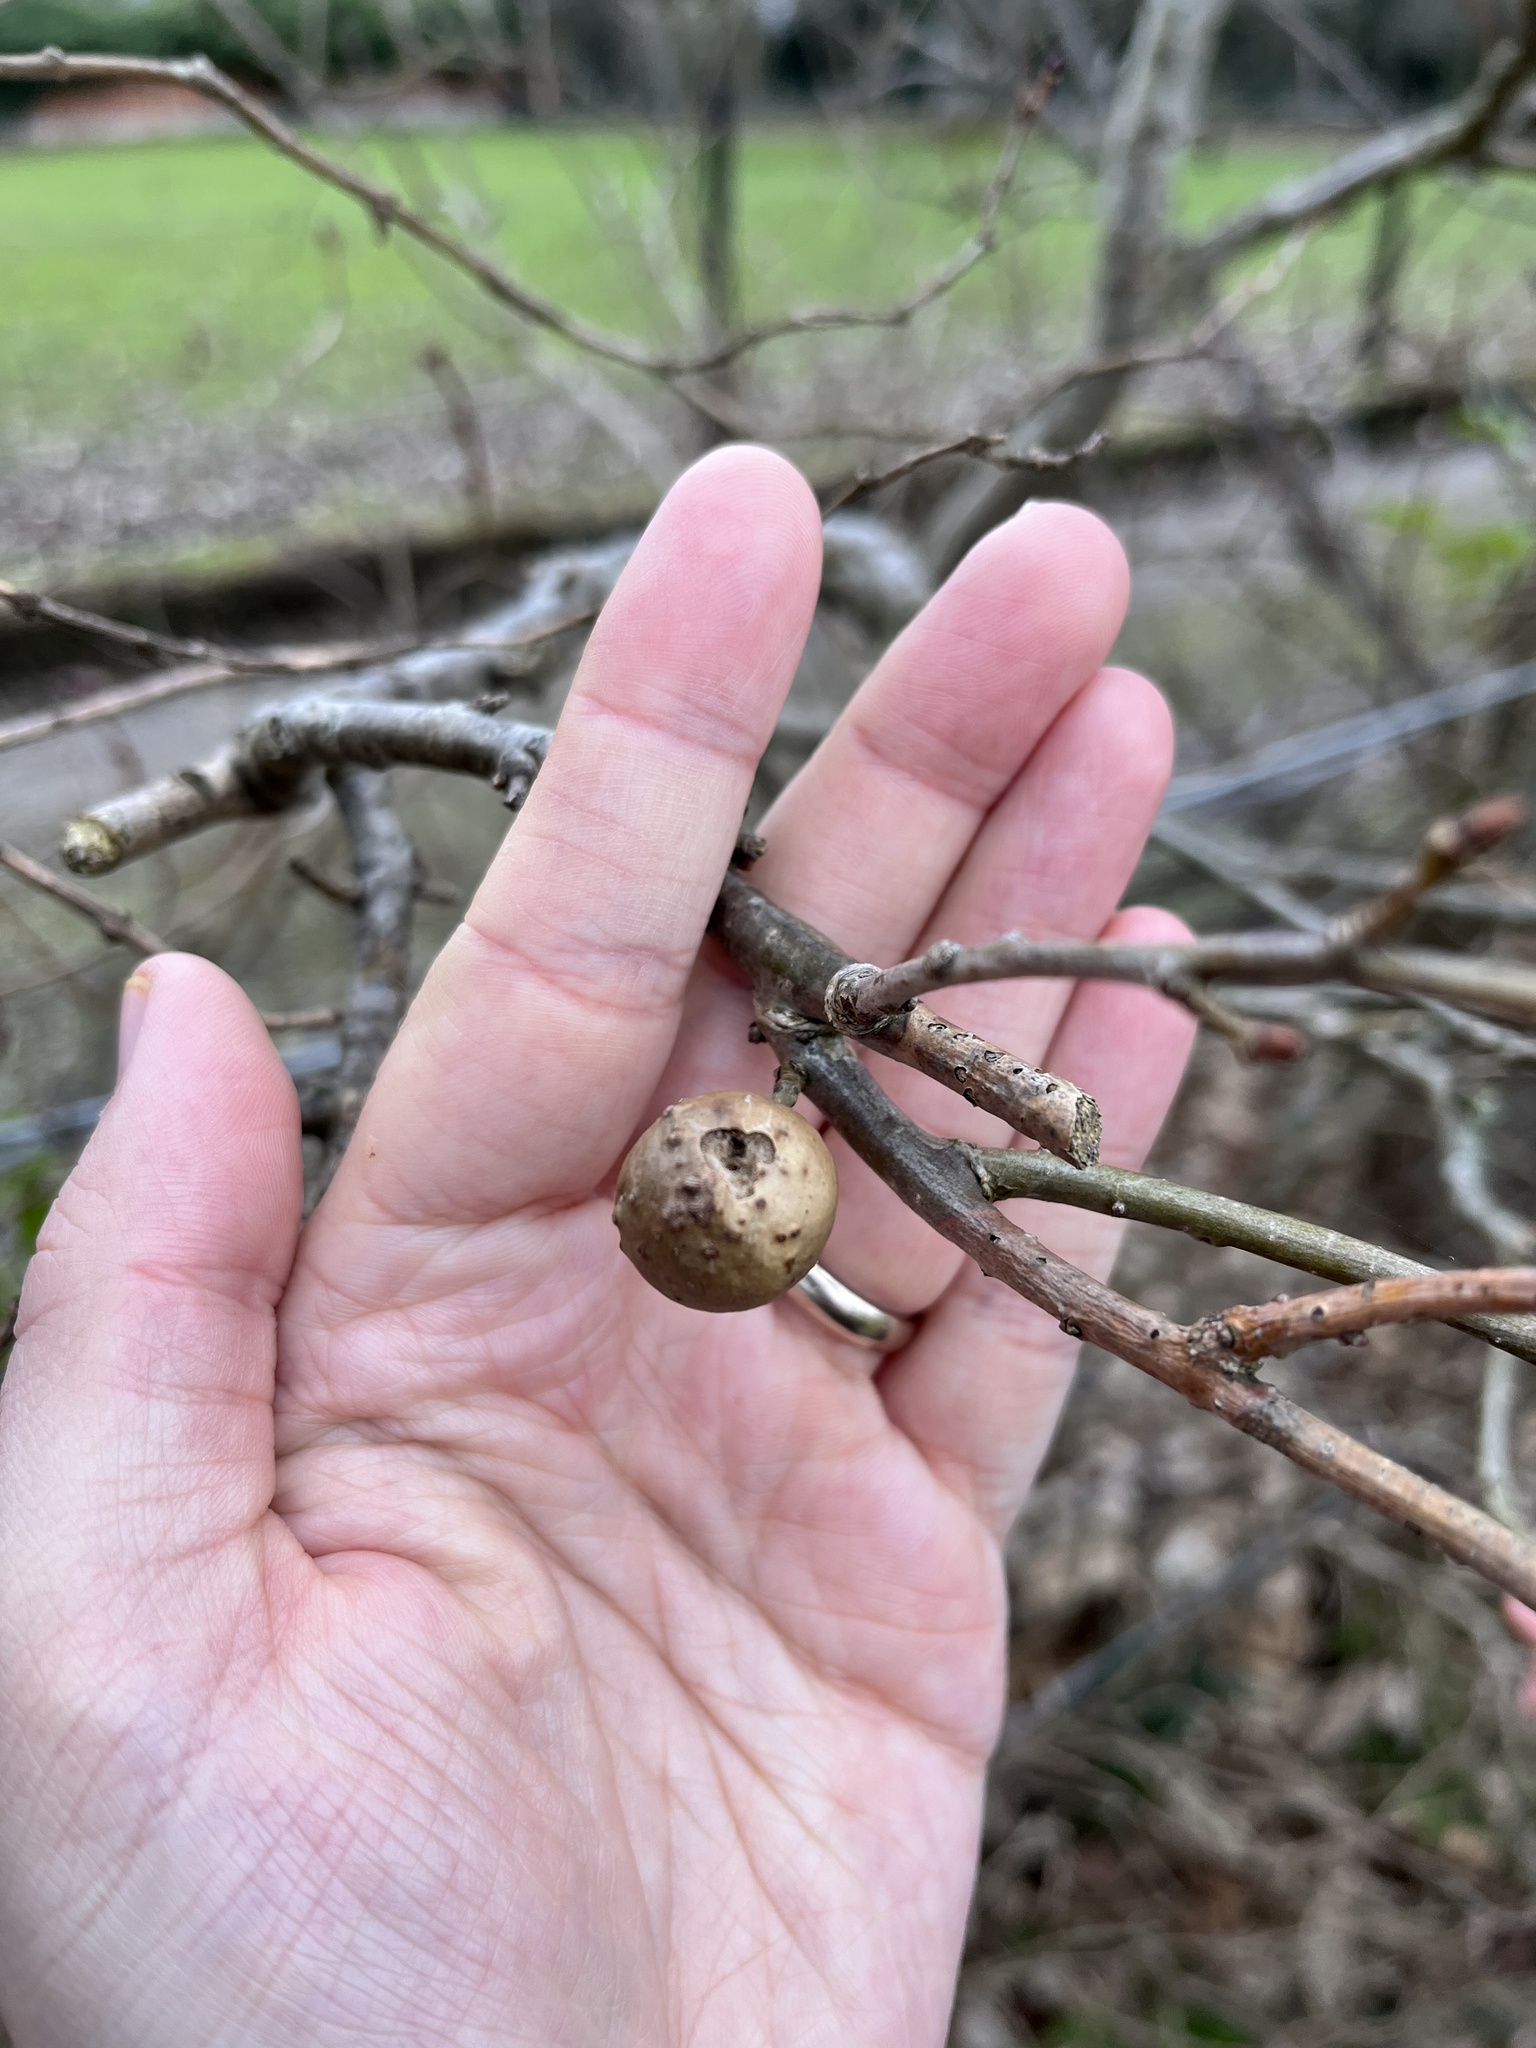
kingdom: Animalia
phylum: Arthropoda
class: Insecta
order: Hymenoptera
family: Cynipidae
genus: Andricus
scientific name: Andricus kollari
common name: Marble gall
